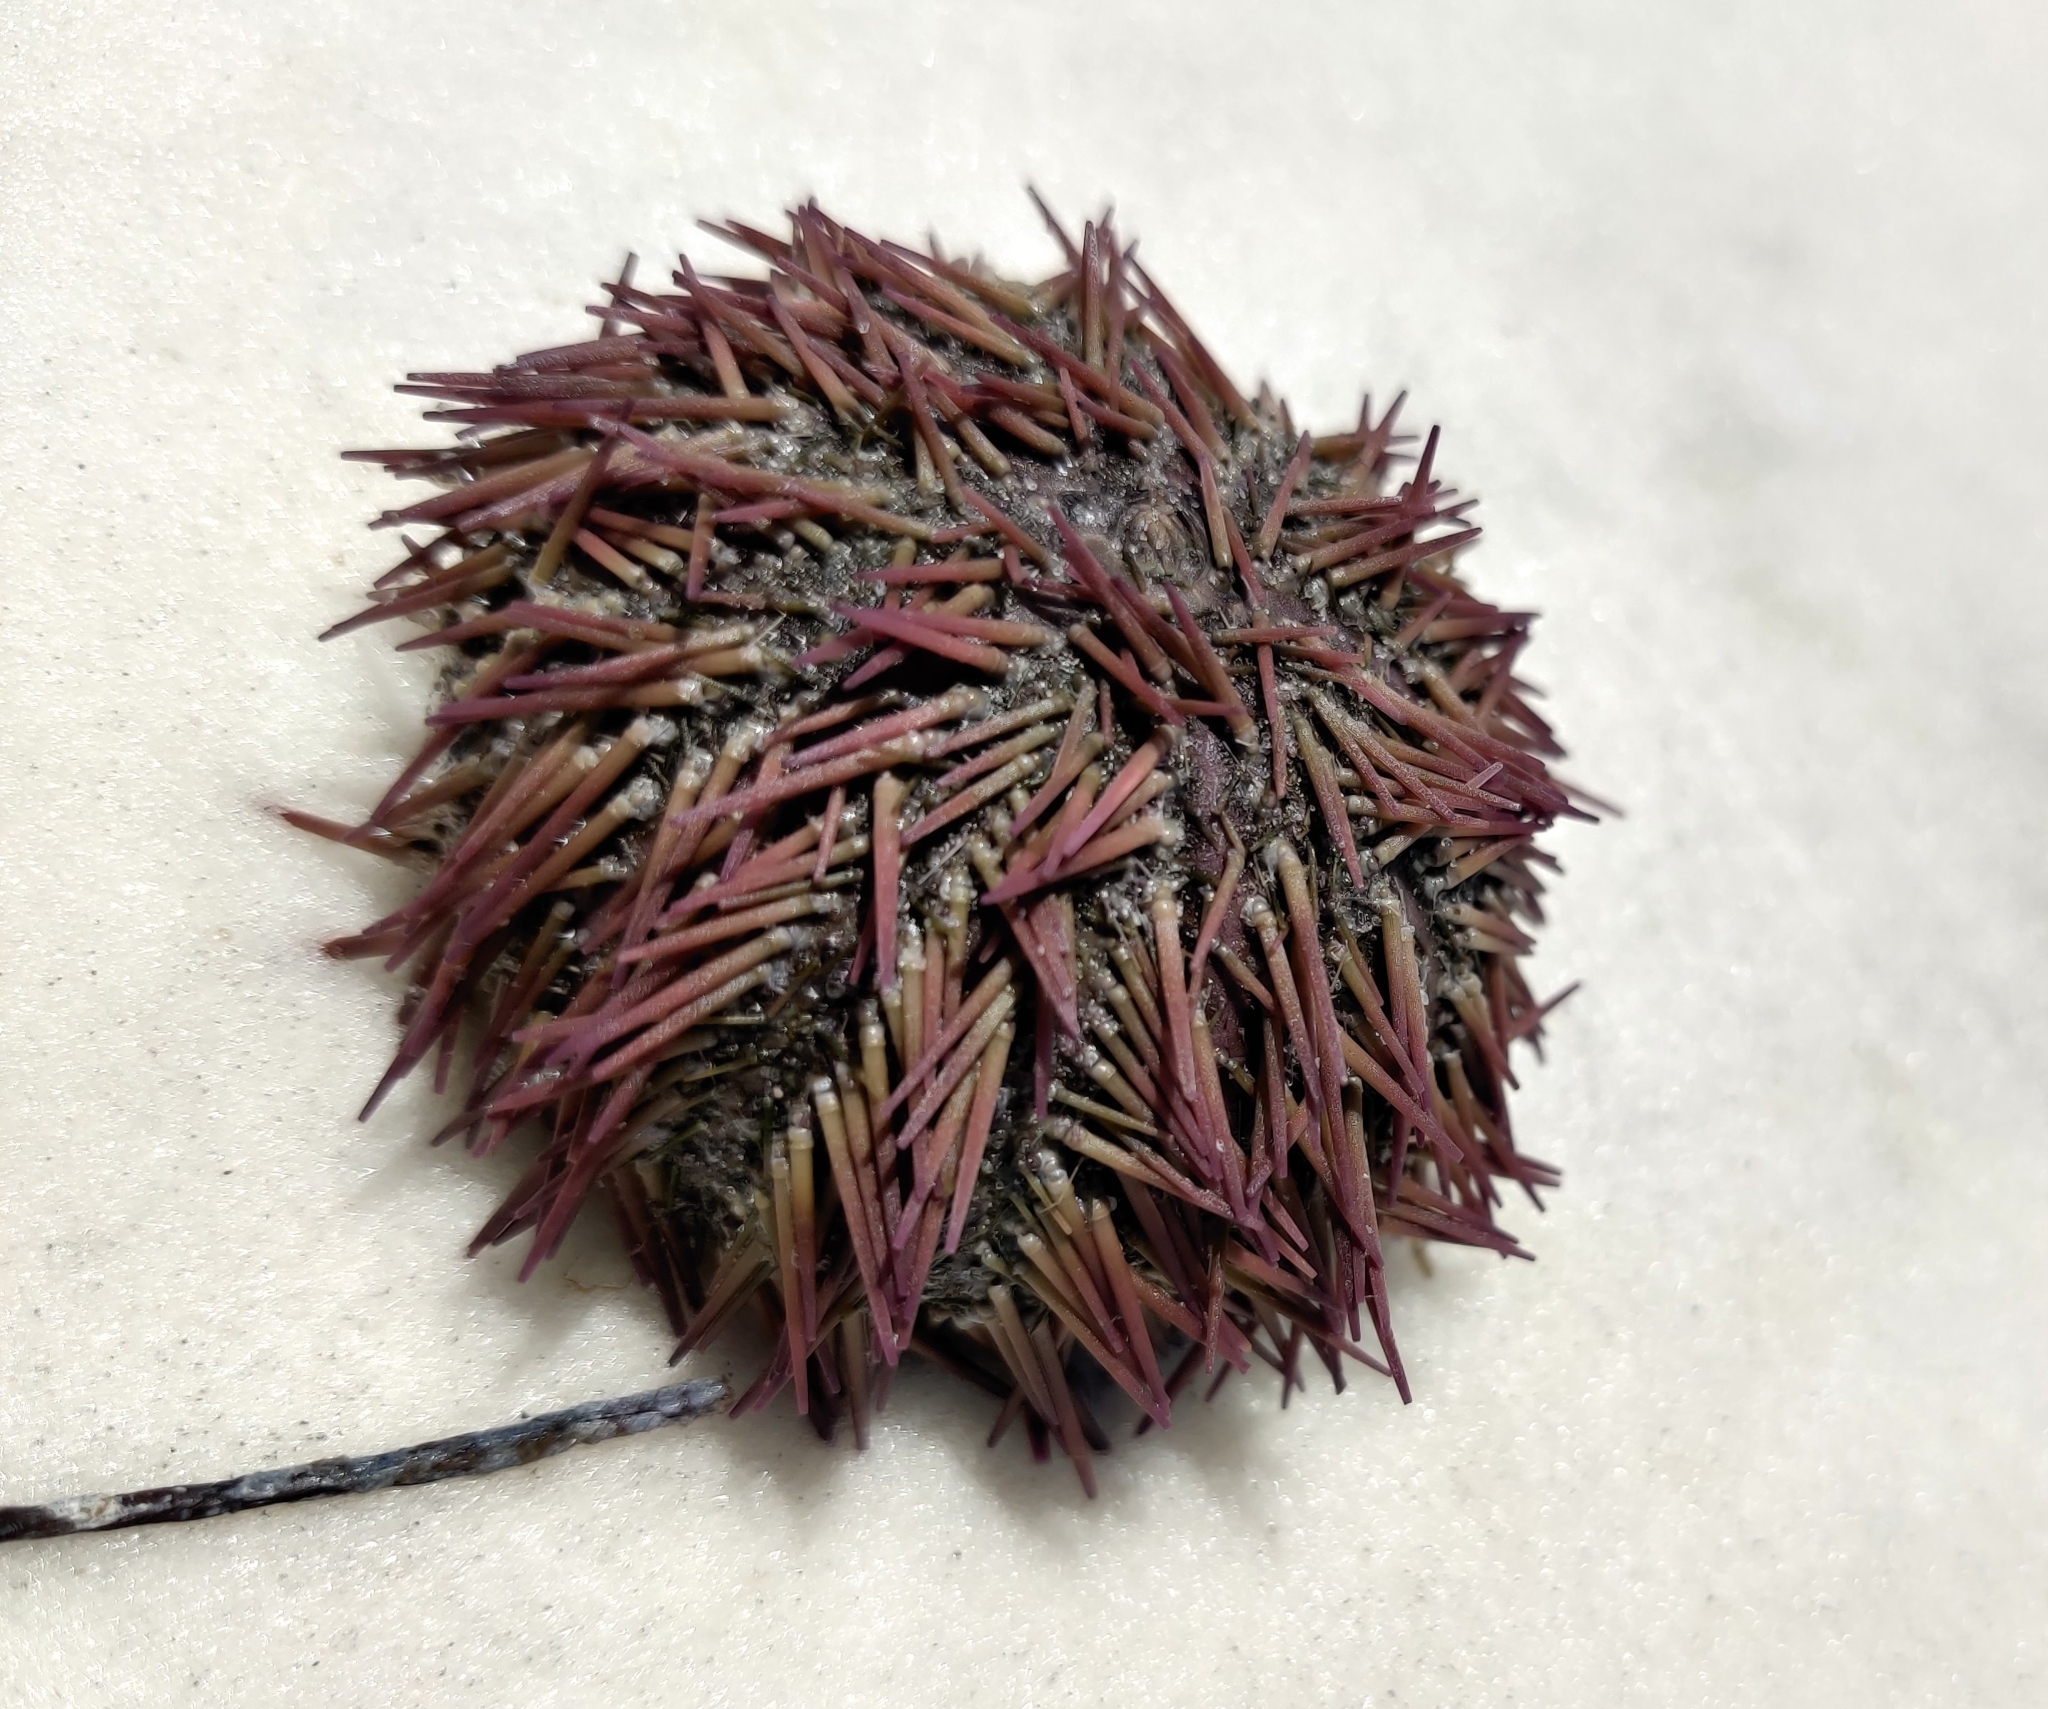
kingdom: Animalia
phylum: Echinodermata
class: Echinoidea
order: Camarodonta
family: Toxopneustidae
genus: Lytechinus
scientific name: Lytechinus variegatus
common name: Variegated urchin
